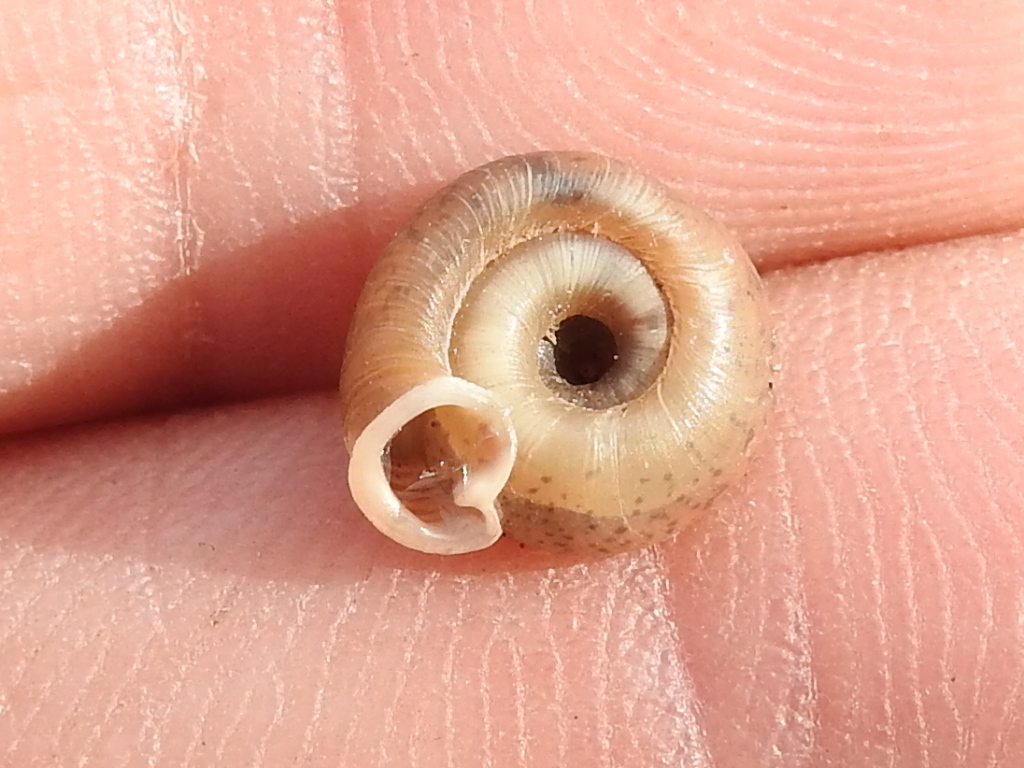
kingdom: Animalia
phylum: Mollusca
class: Gastropoda
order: Stylommatophora
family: Polygyridae
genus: Polygyra
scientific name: Polygyra cereolus
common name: Southern flatcone snail
